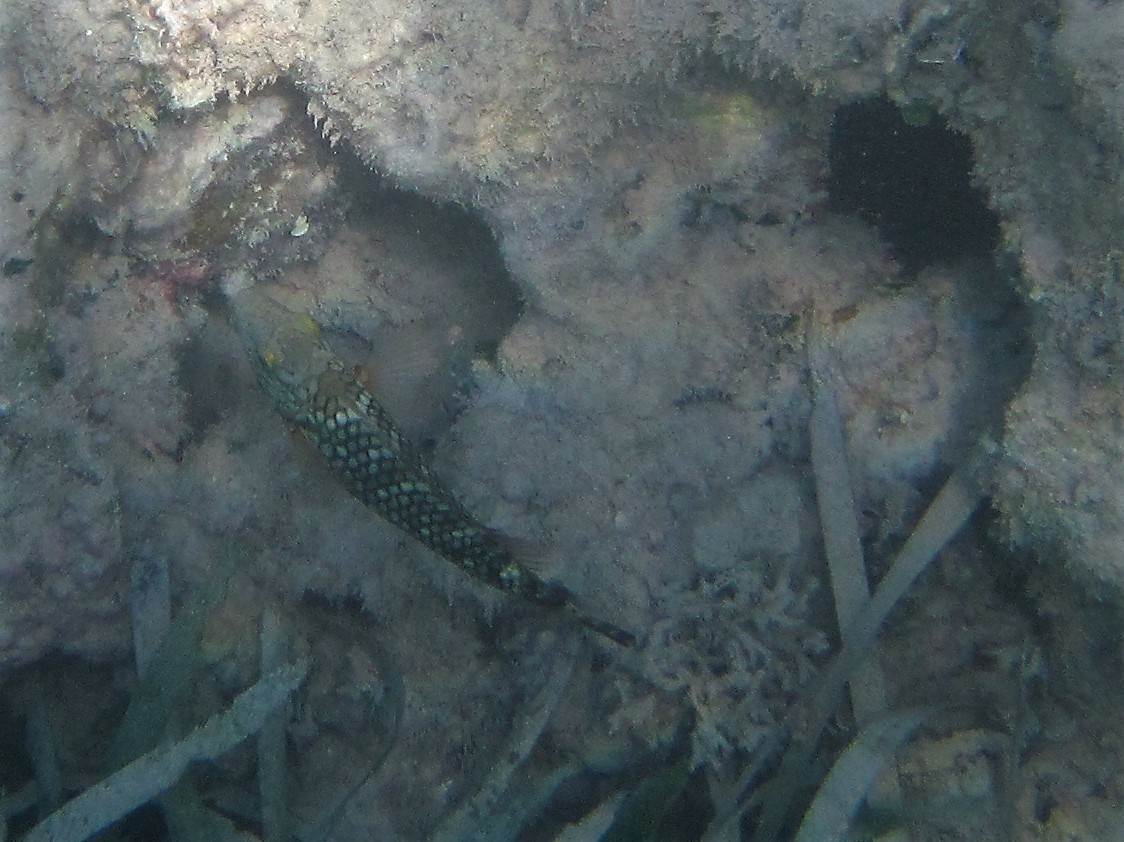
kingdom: Animalia
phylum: Chordata
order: Perciformes
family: Scaridae
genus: Sparisoma
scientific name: Sparisoma viride
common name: Stoplight parrotfish
